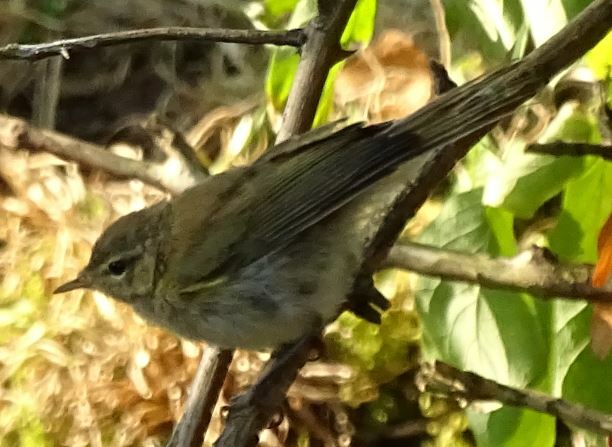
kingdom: Animalia
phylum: Chordata
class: Aves
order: Passeriformes
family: Phylloscopidae
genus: Phylloscopus
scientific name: Phylloscopus collybita
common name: Common chiffchaff
